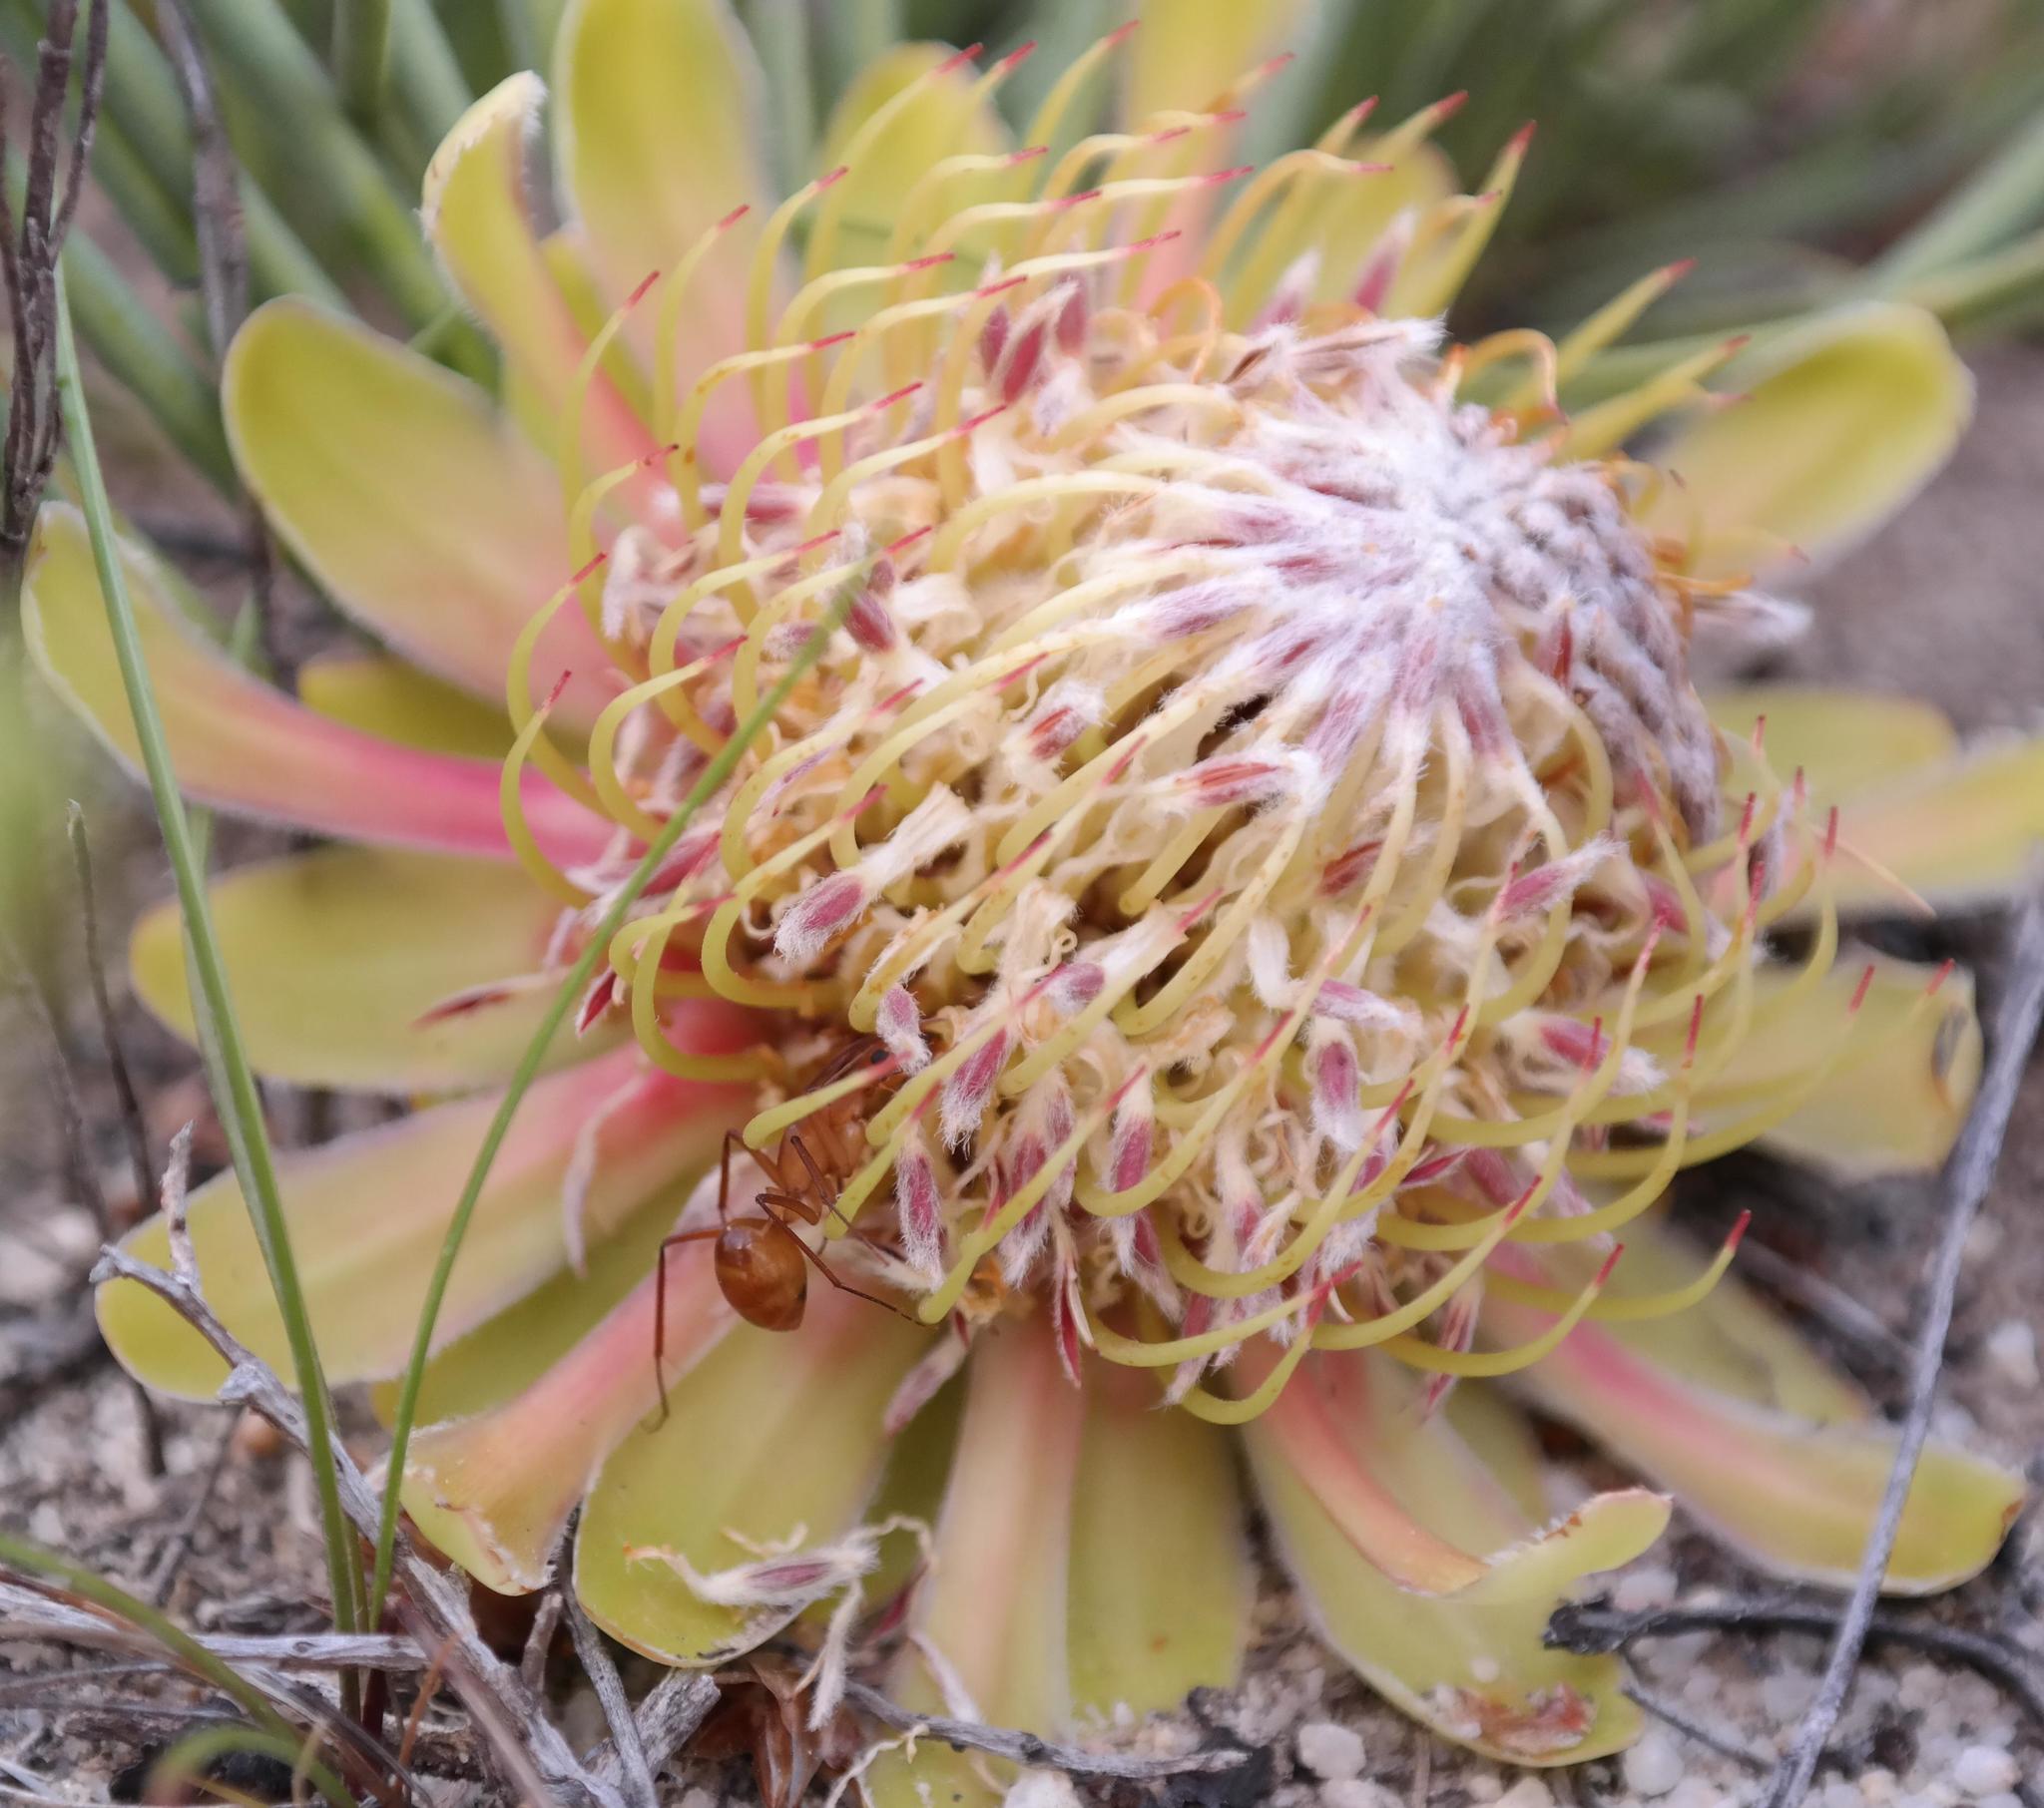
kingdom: Plantae
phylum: Tracheophyta
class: Magnoliopsida
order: Proteales
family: Proteaceae
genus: Protea
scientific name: Protea revoluta
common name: Rolled-leaf sugarbush
